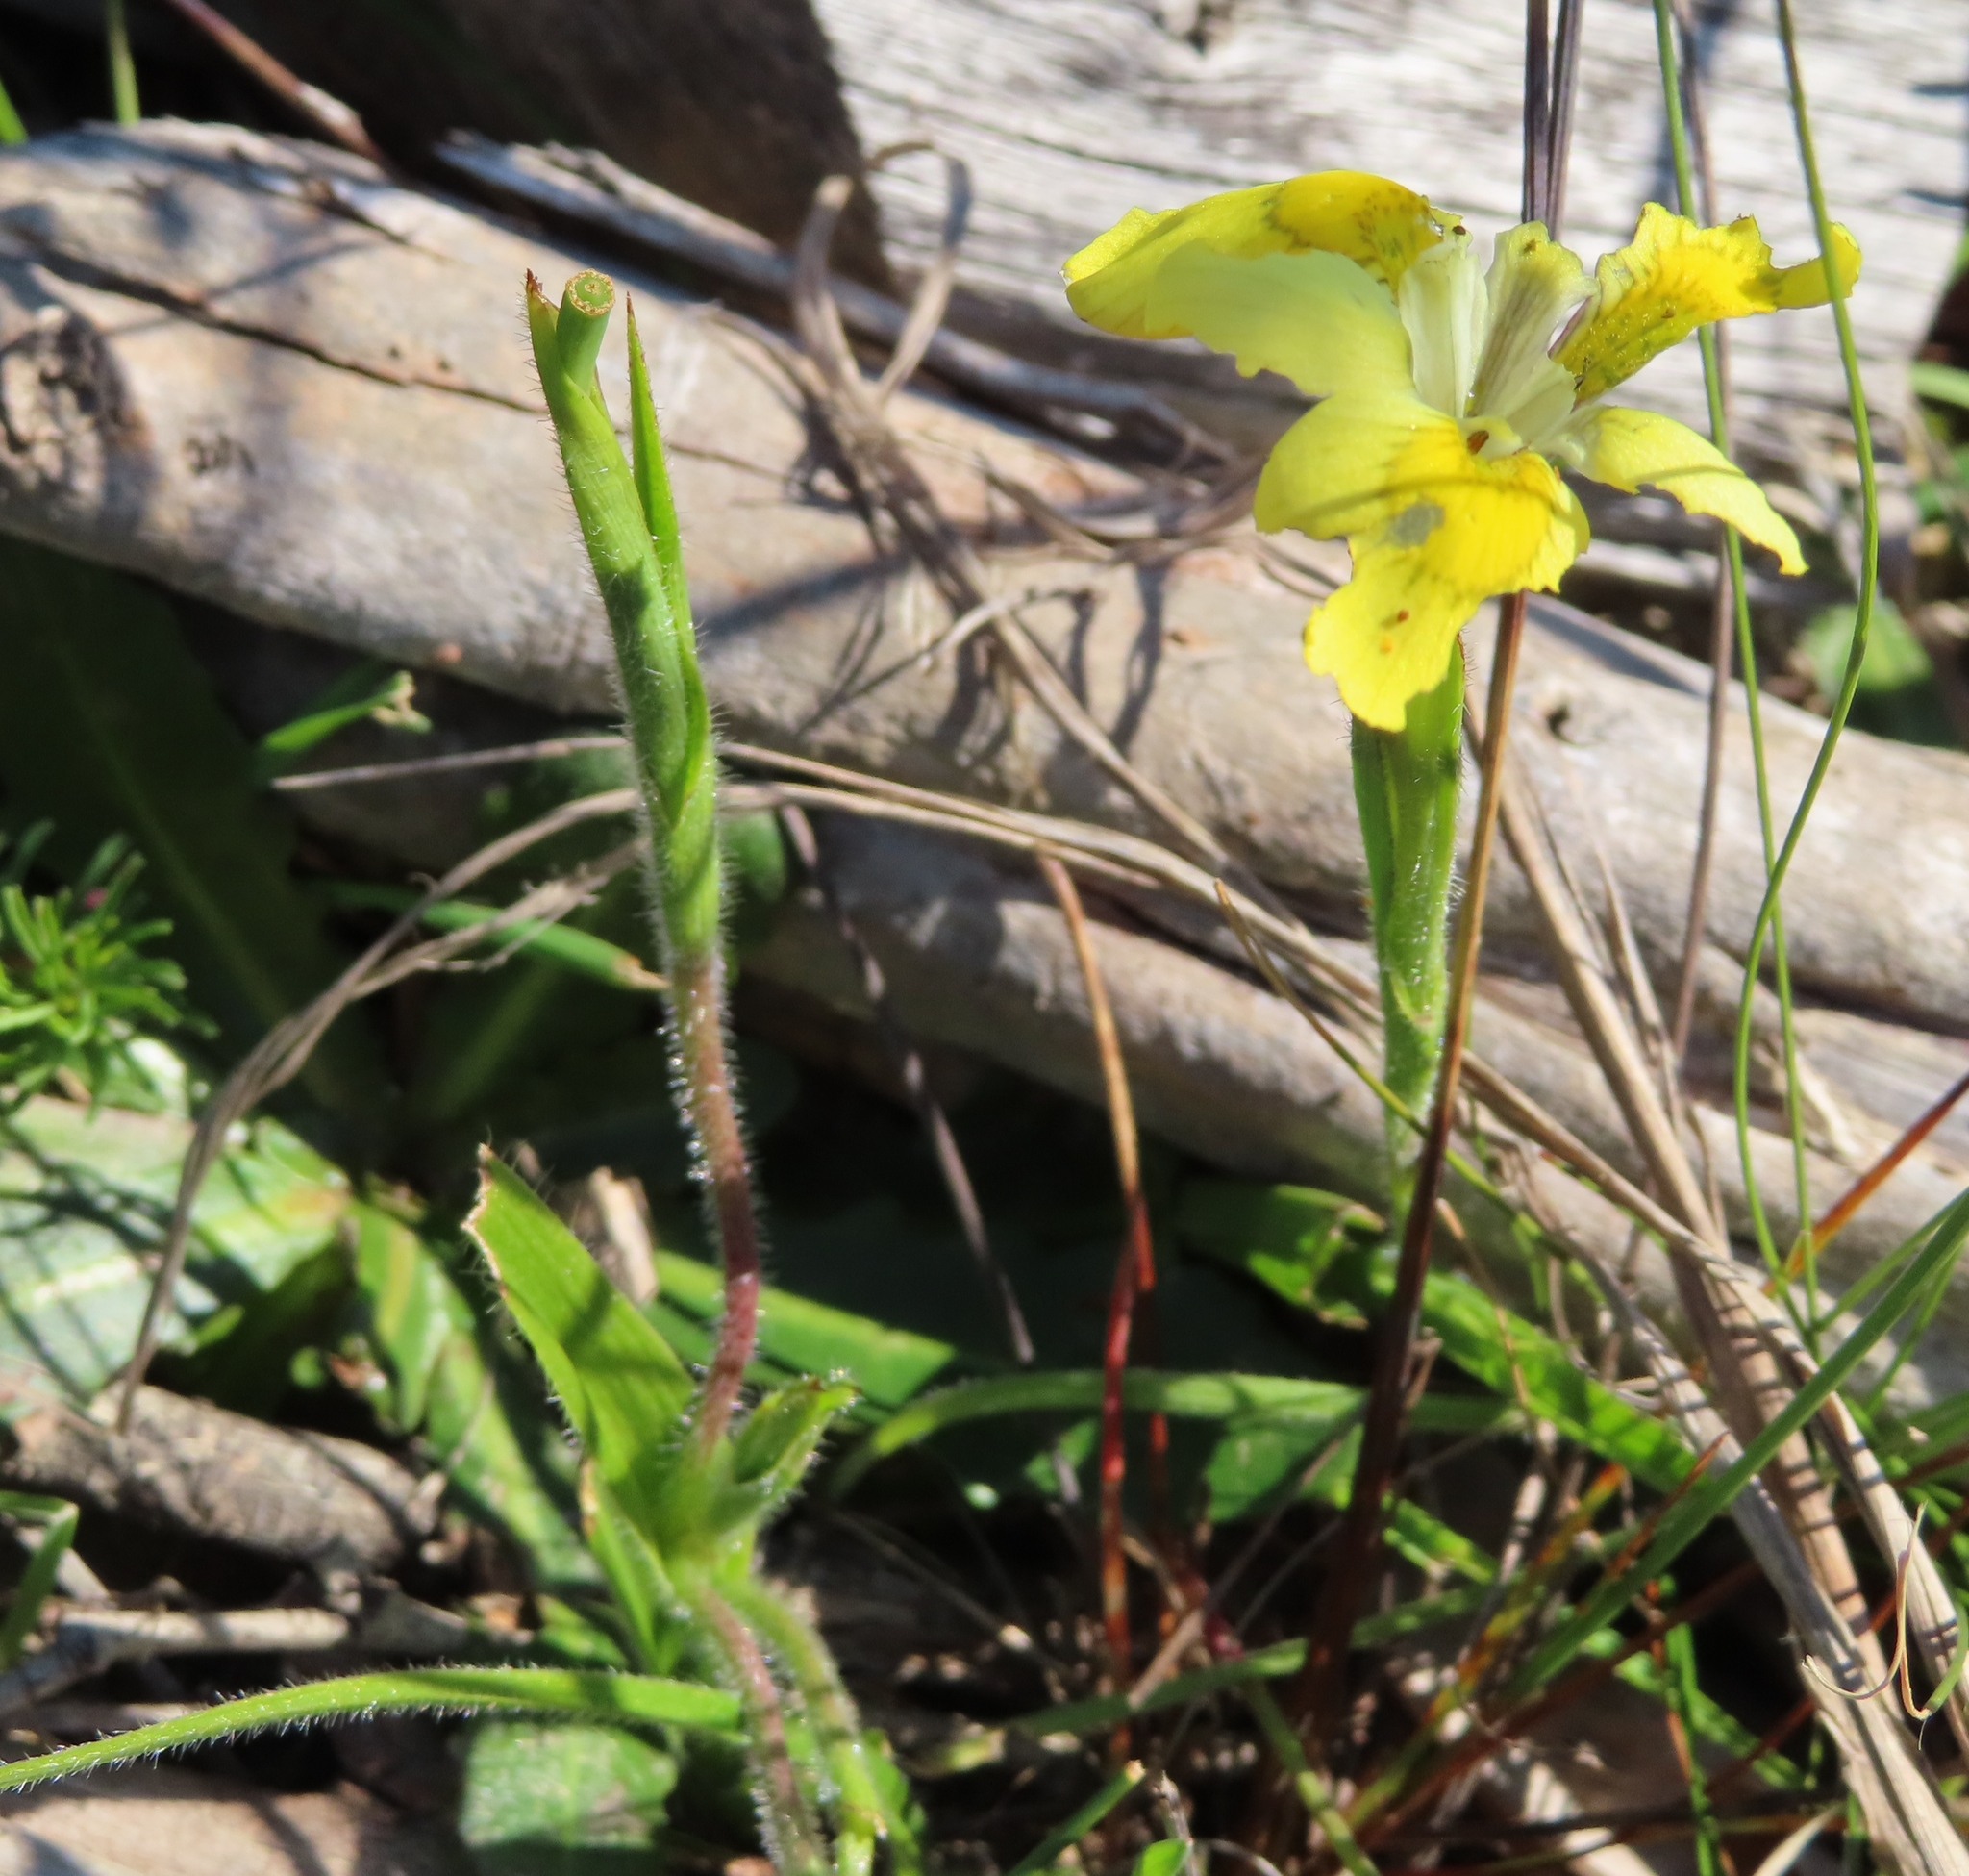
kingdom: Plantae
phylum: Tracheophyta
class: Liliopsida
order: Asparagales
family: Iridaceae
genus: Moraea
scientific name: Moraea papilionacea
